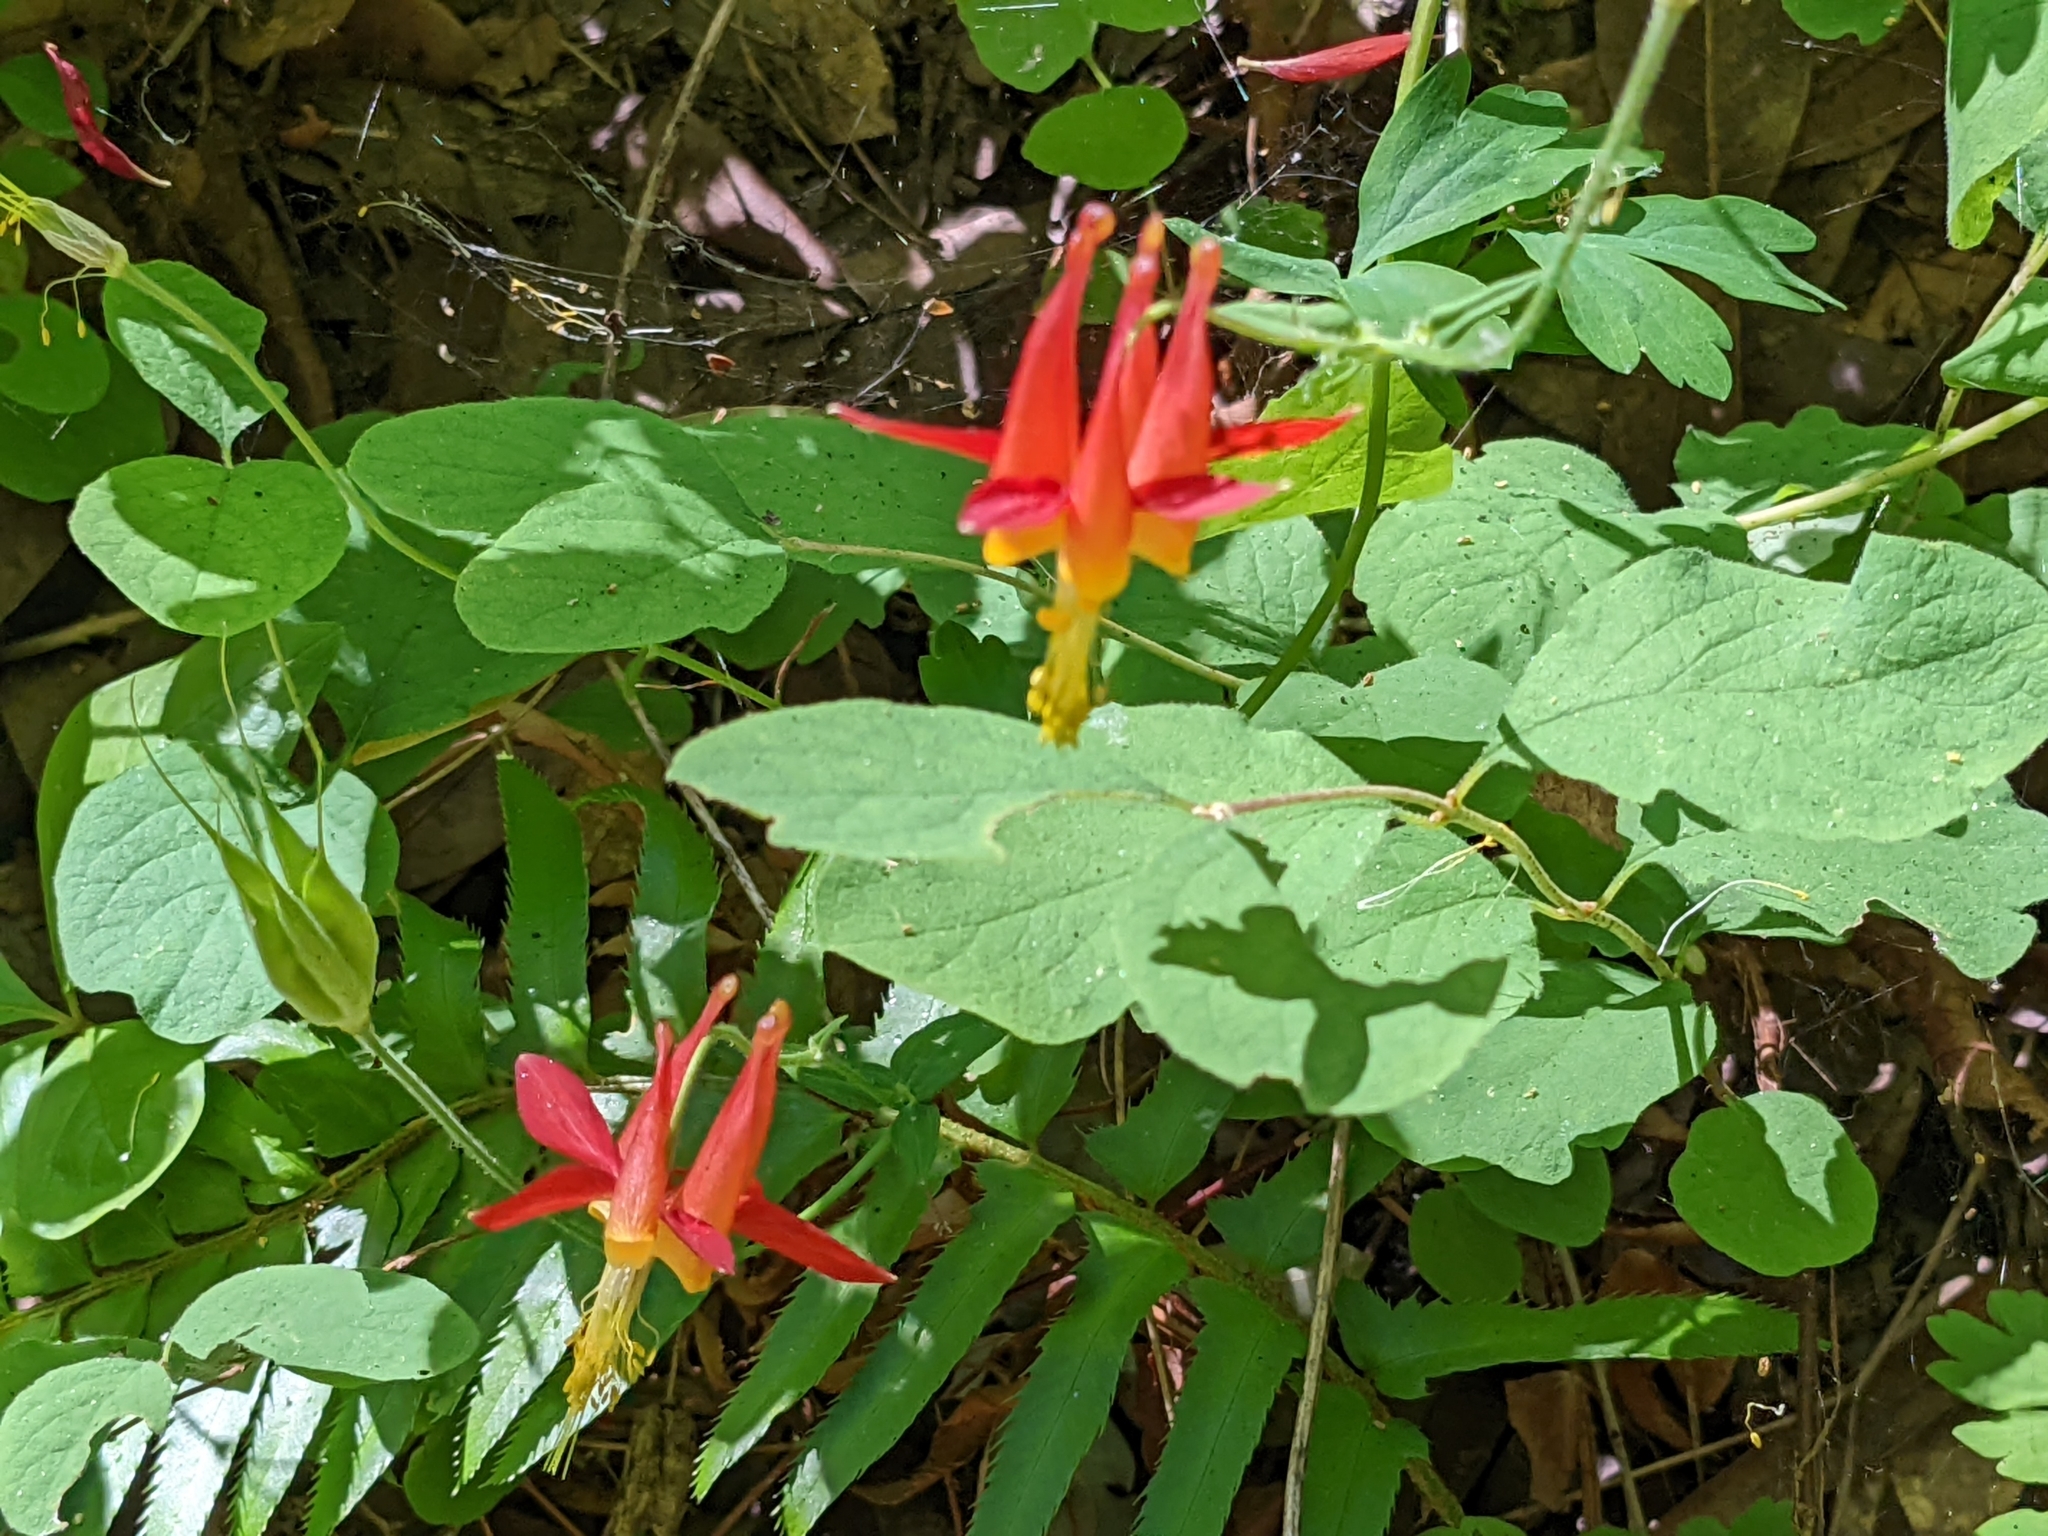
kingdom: Plantae
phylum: Tracheophyta
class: Magnoliopsida
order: Ranunculales
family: Ranunculaceae
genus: Aquilegia
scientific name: Aquilegia formosa
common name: Sitka columbine
